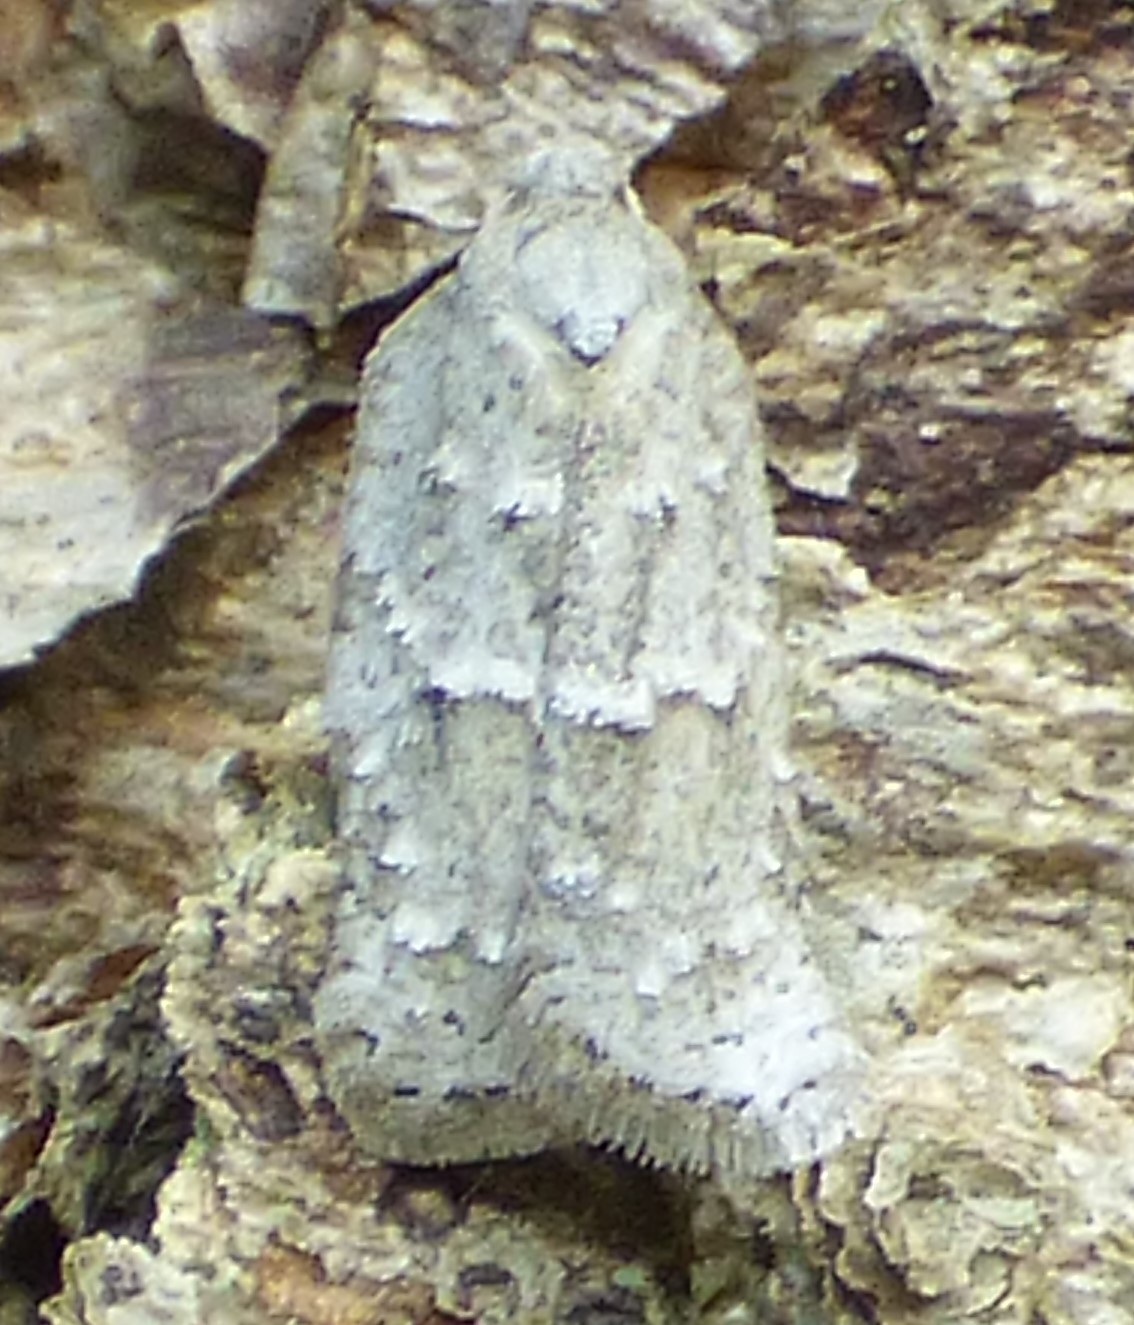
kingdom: Animalia
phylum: Arthropoda
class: Insecta
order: Lepidoptera
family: Tortricidae
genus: Acleris
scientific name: Acleris placidana
